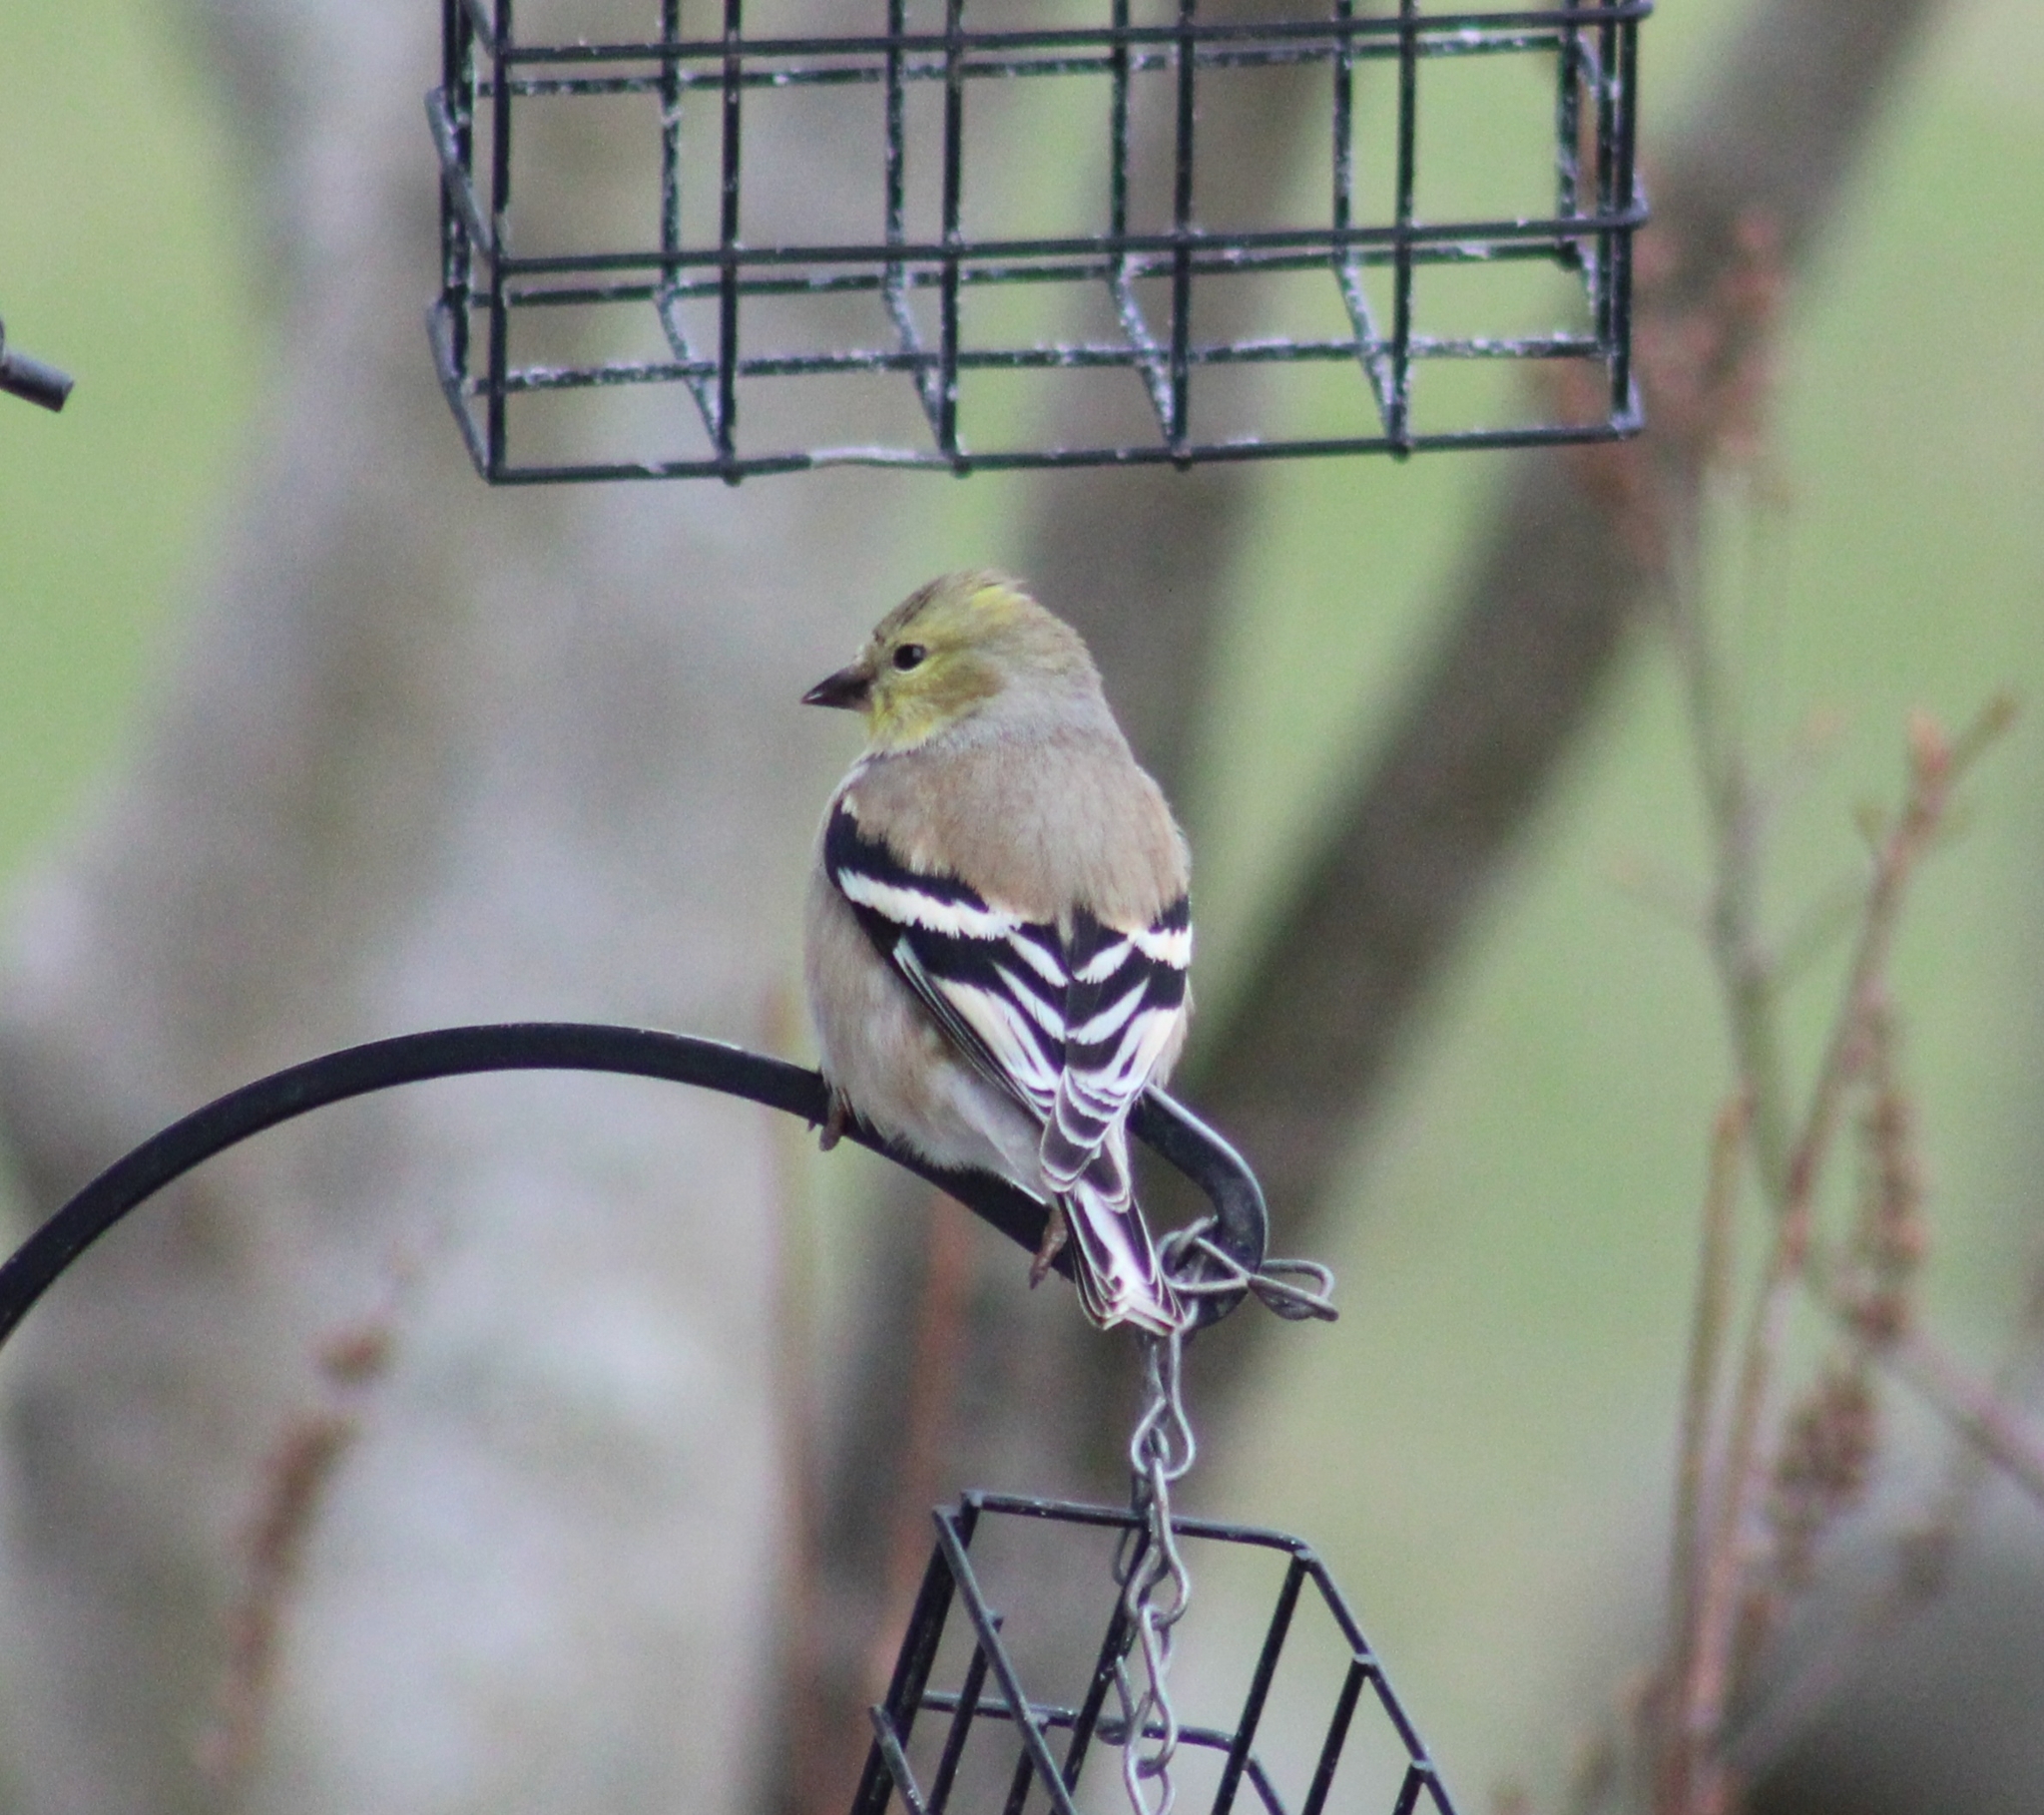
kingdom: Animalia
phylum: Chordata
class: Aves
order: Passeriformes
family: Fringillidae
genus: Spinus
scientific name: Spinus tristis
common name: American goldfinch
